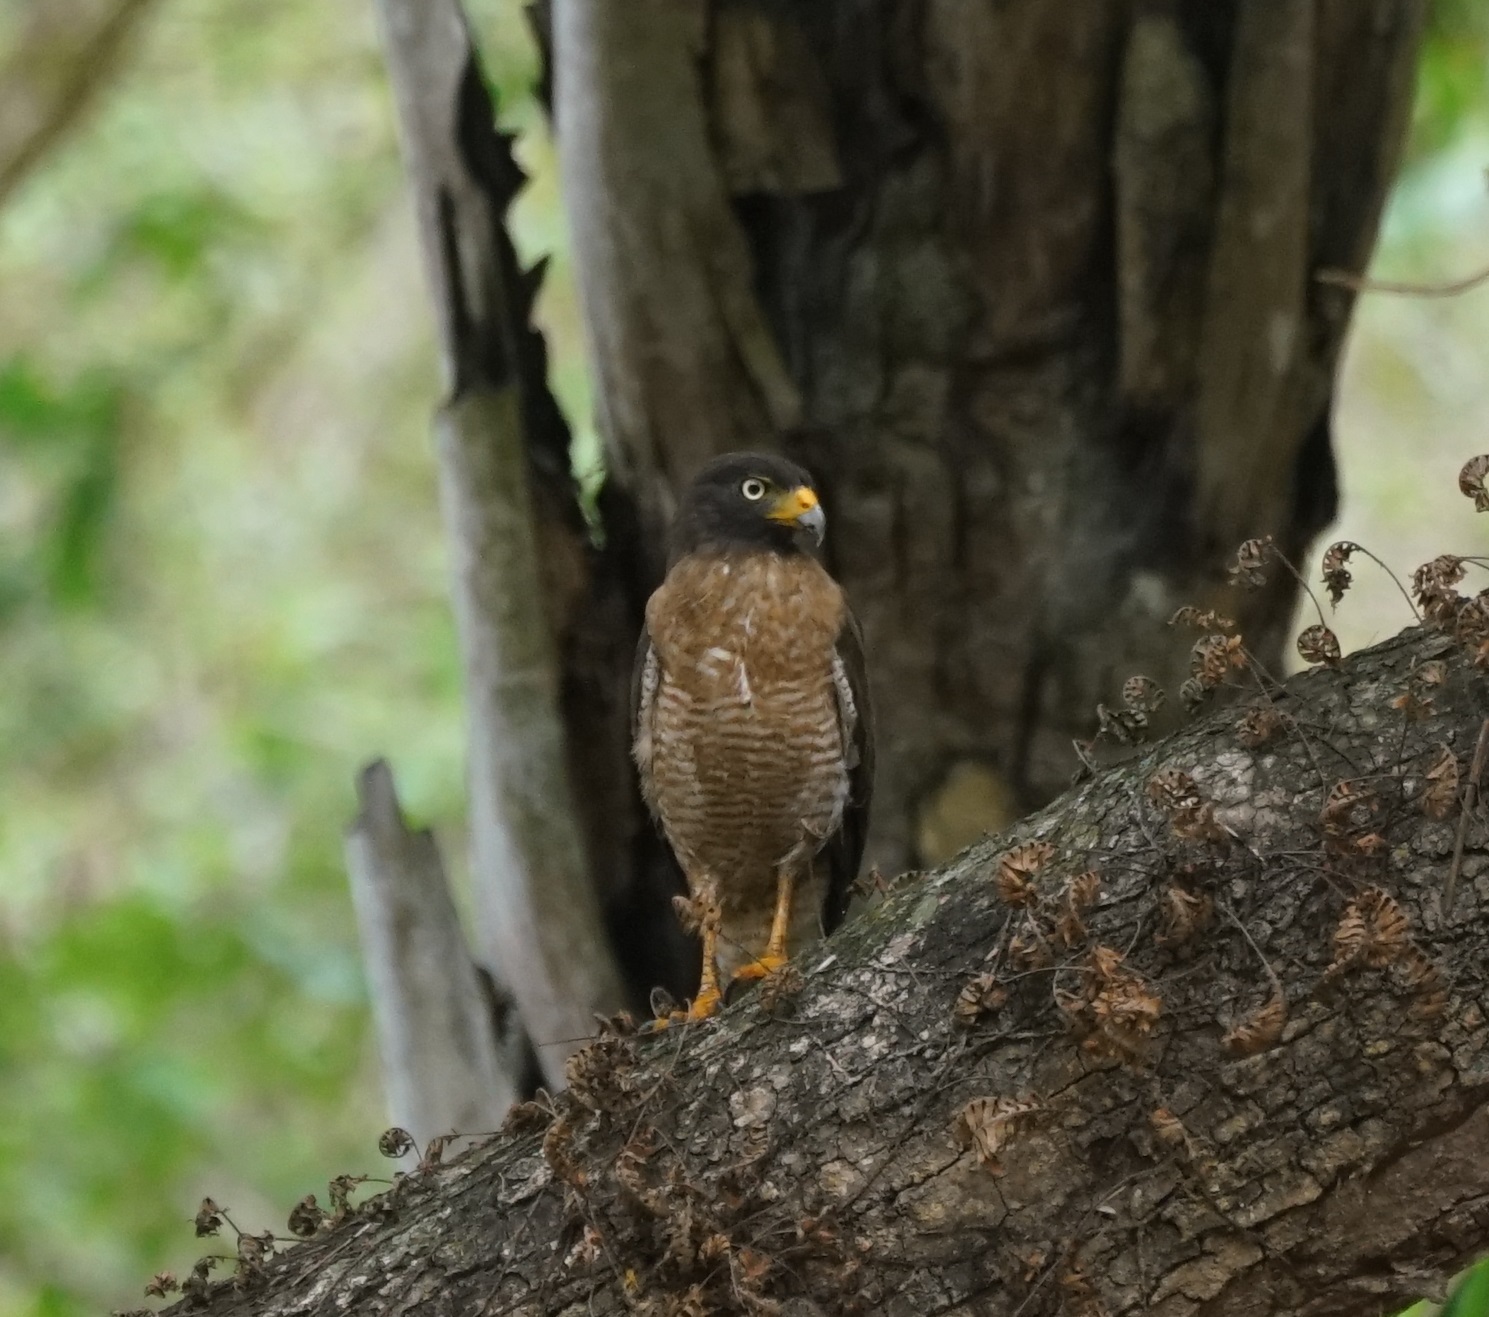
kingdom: Animalia
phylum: Chordata
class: Aves
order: Accipitriformes
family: Accipitridae
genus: Rupornis
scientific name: Rupornis magnirostris
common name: Roadside hawk
